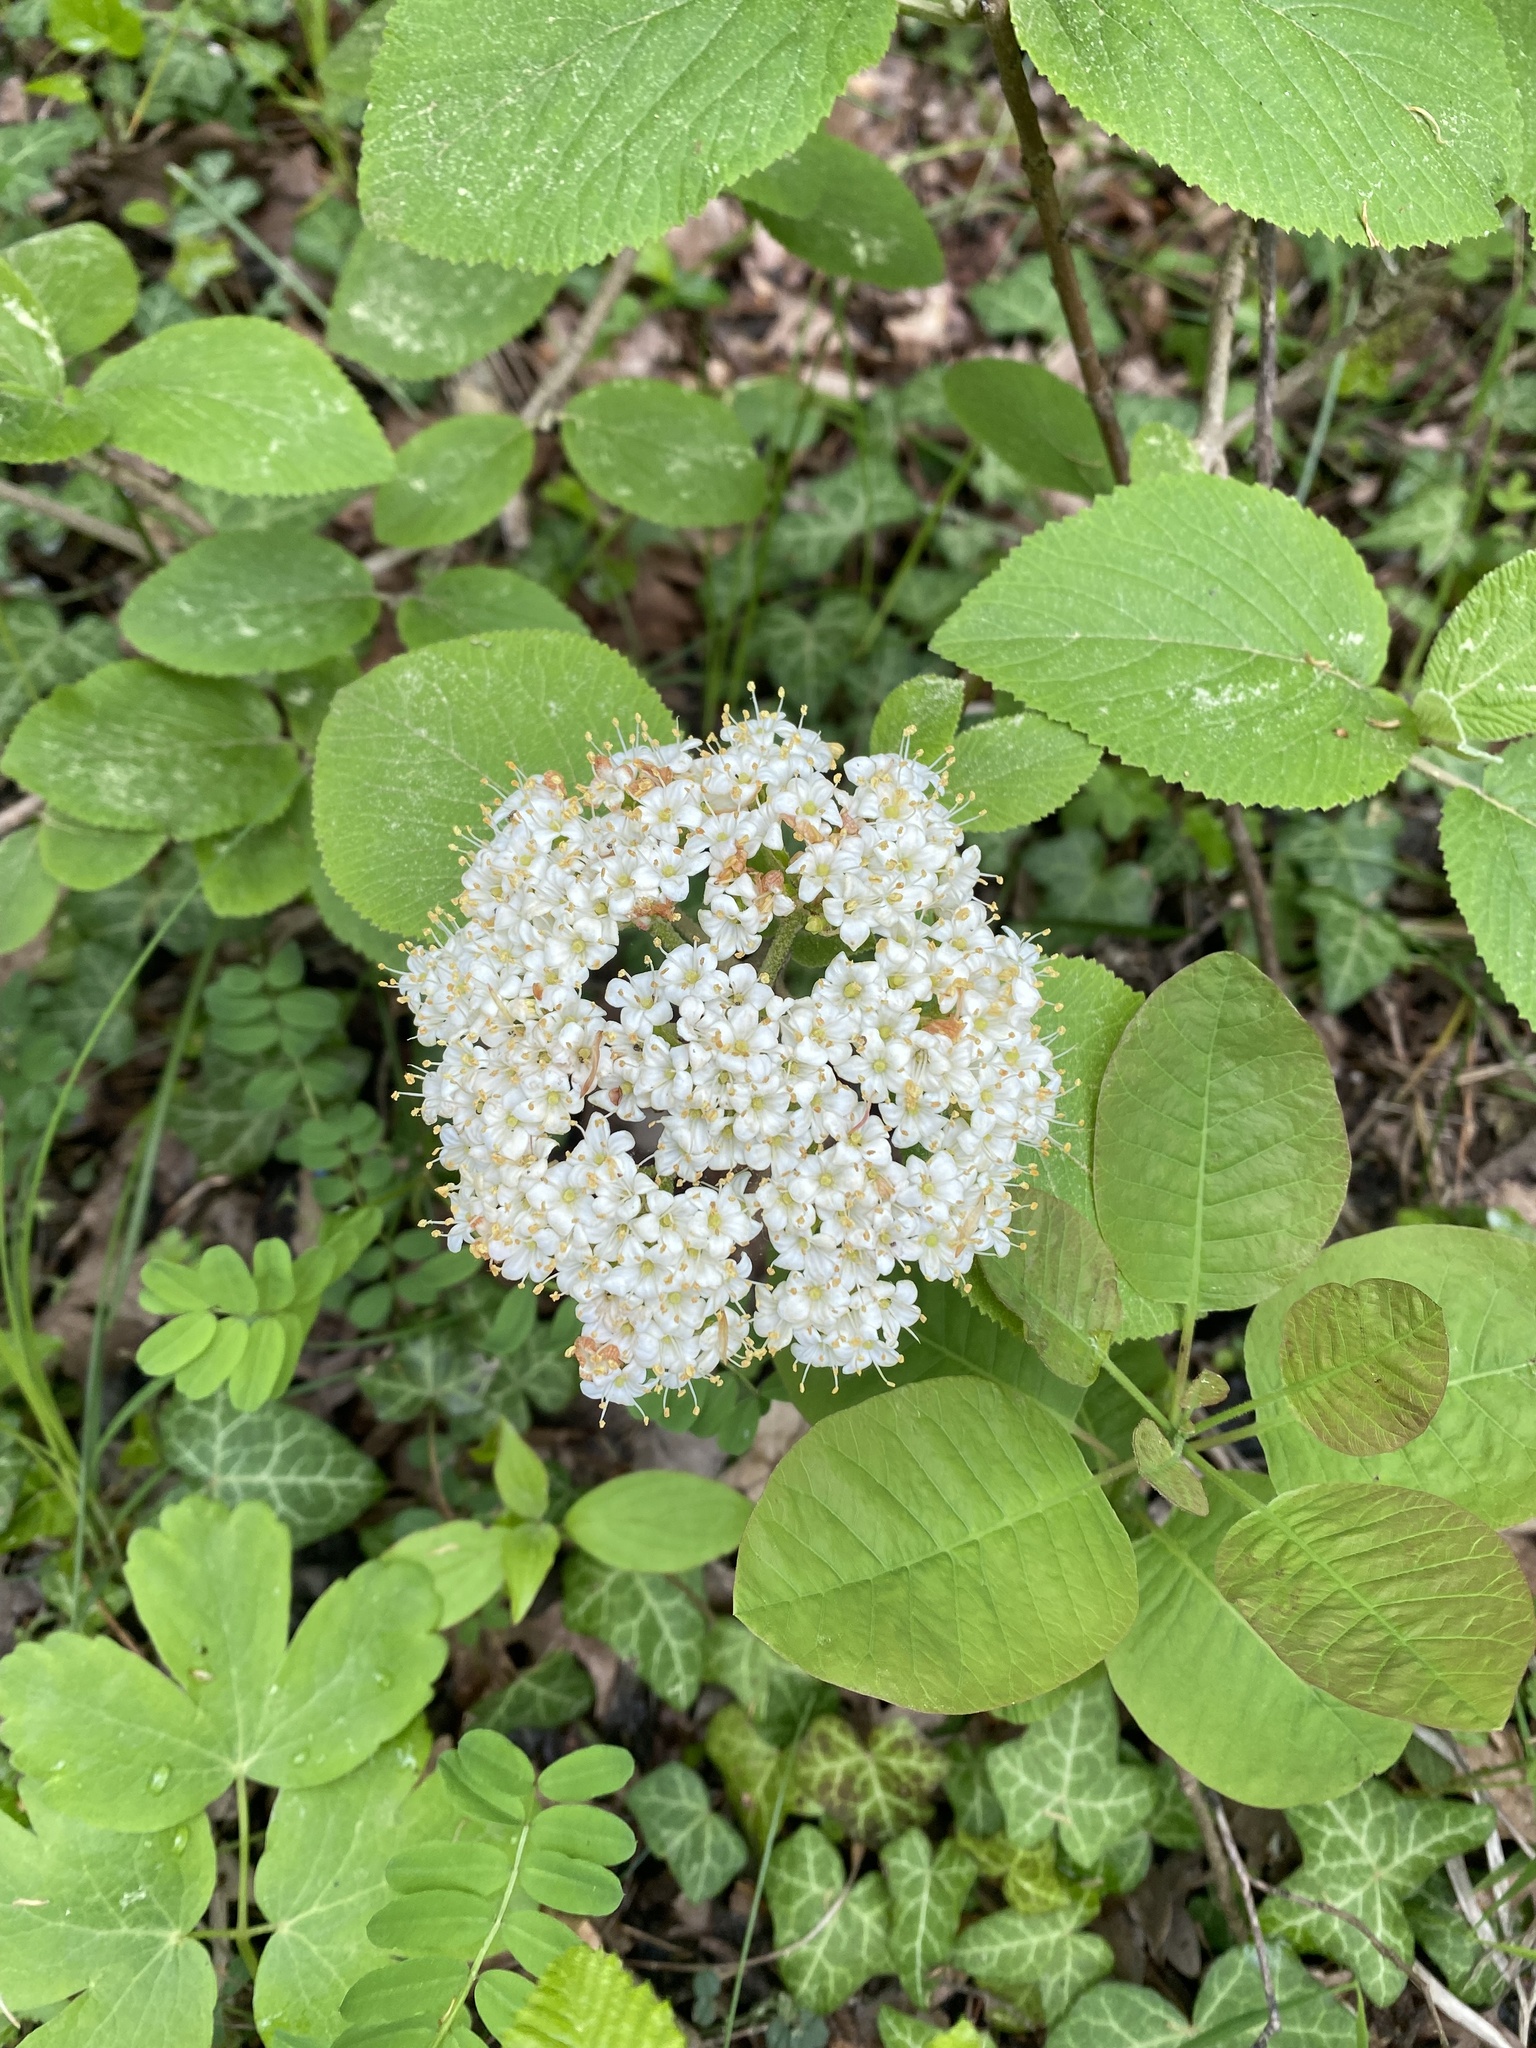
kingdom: Plantae
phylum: Tracheophyta
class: Magnoliopsida
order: Dipsacales
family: Viburnaceae
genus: Viburnum
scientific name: Viburnum lantana
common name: Wayfaring tree
